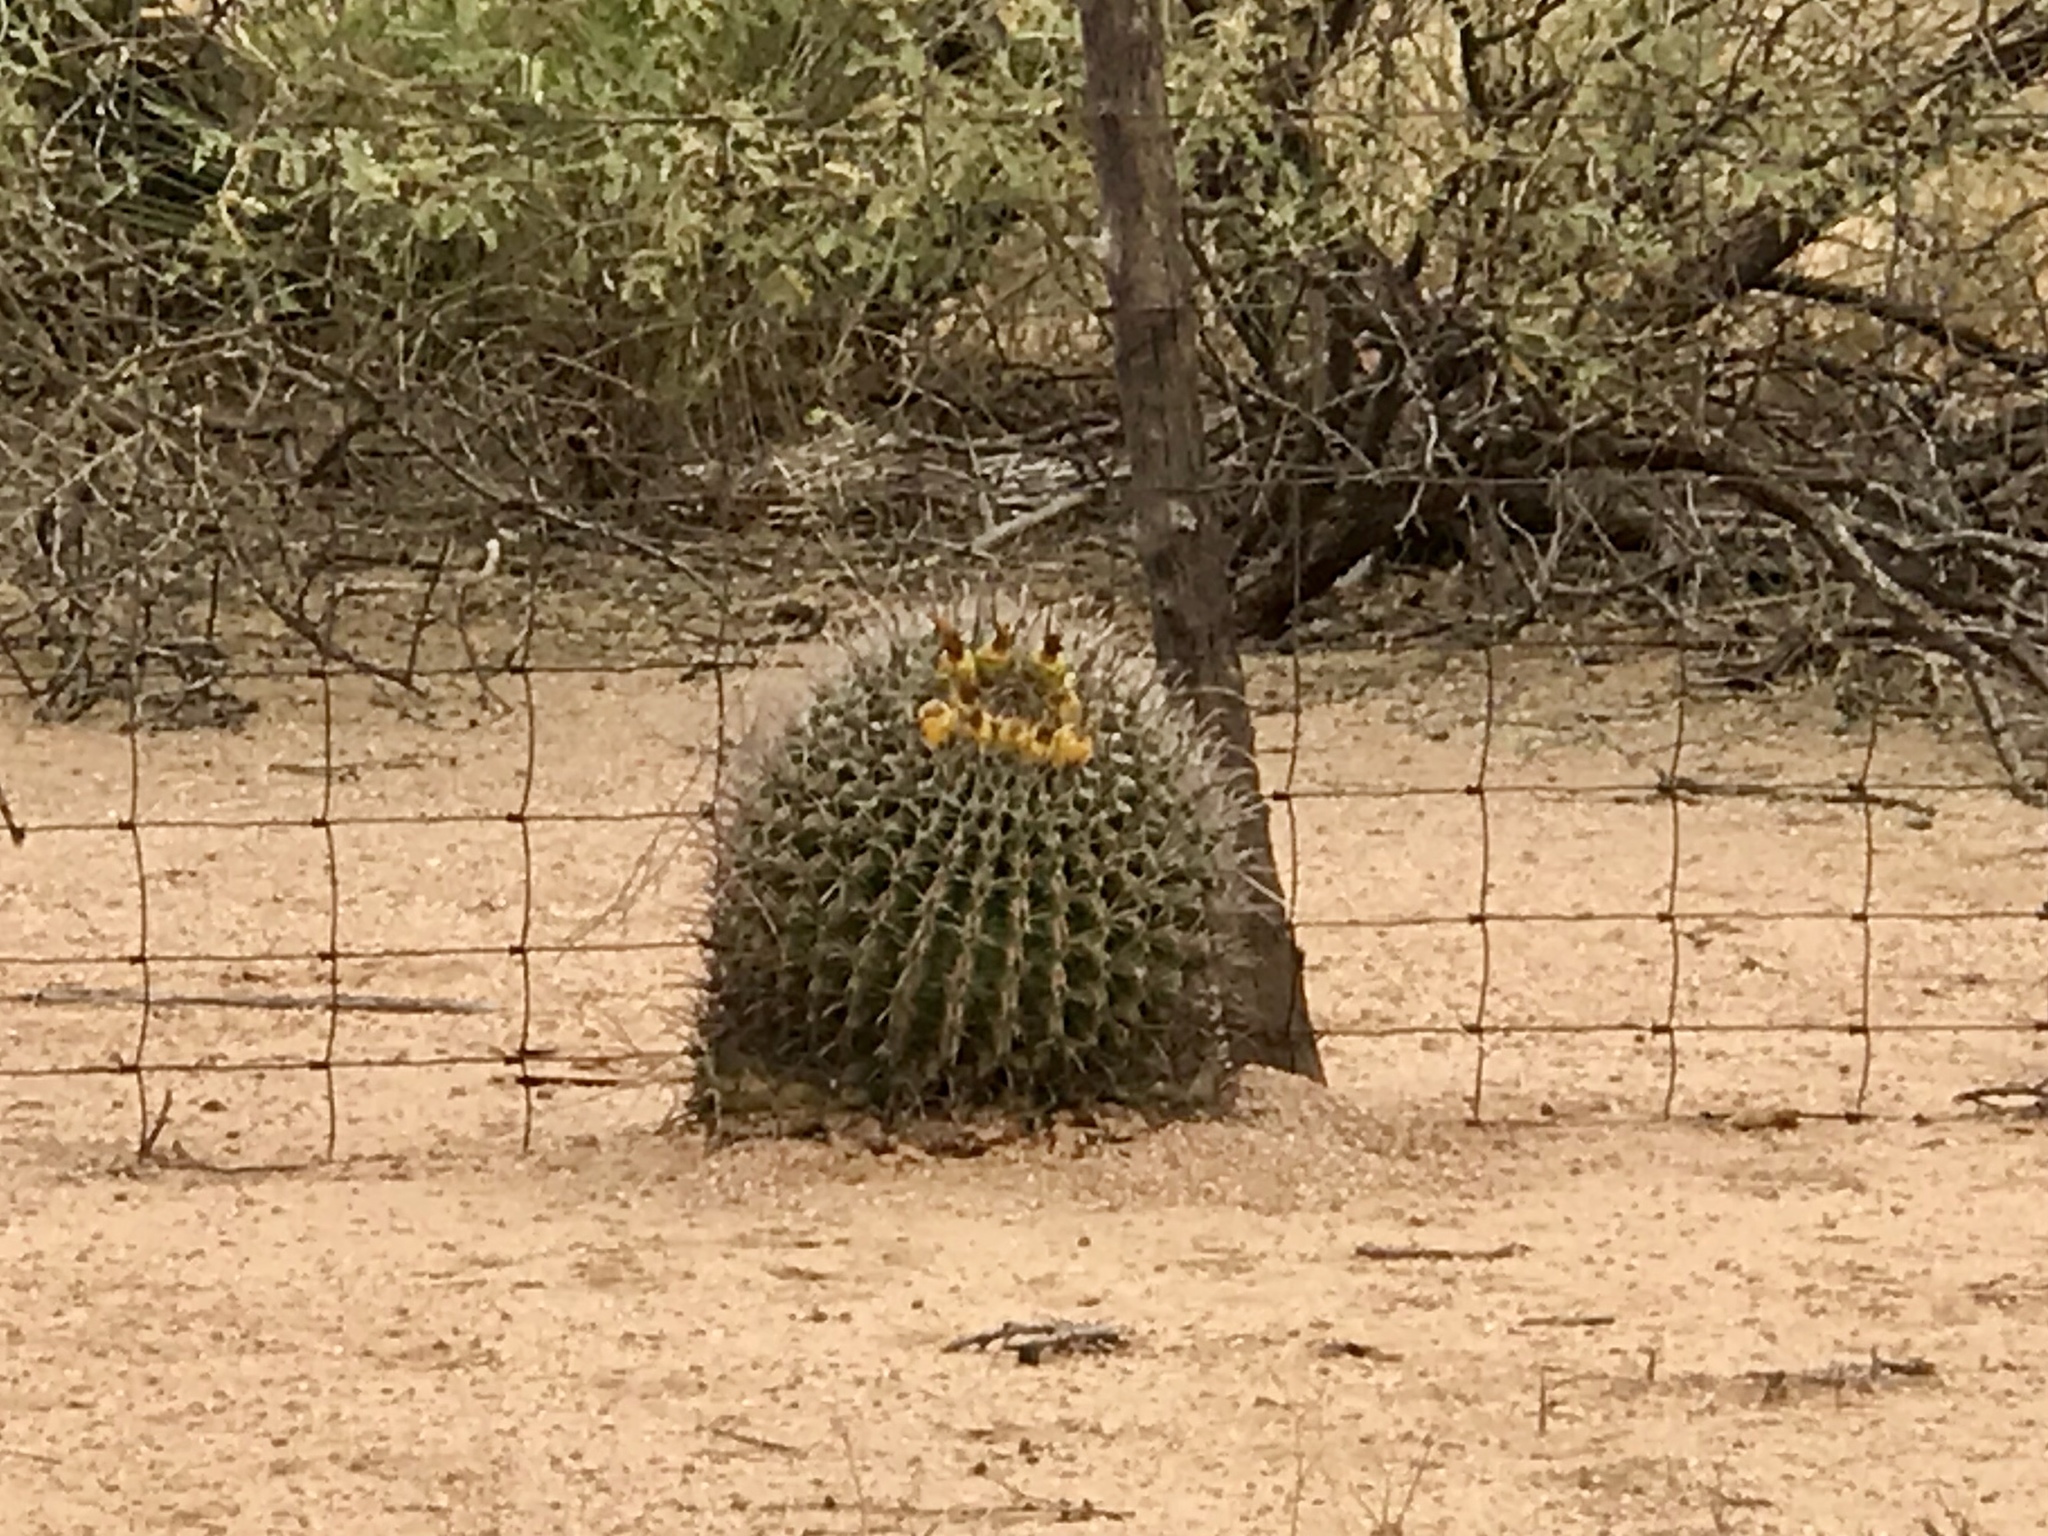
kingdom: Plantae
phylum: Tracheophyta
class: Magnoliopsida
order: Caryophyllales
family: Cactaceae
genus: Ferocactus
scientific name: Ferocactus wislizeni
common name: Candy barrel cactus
